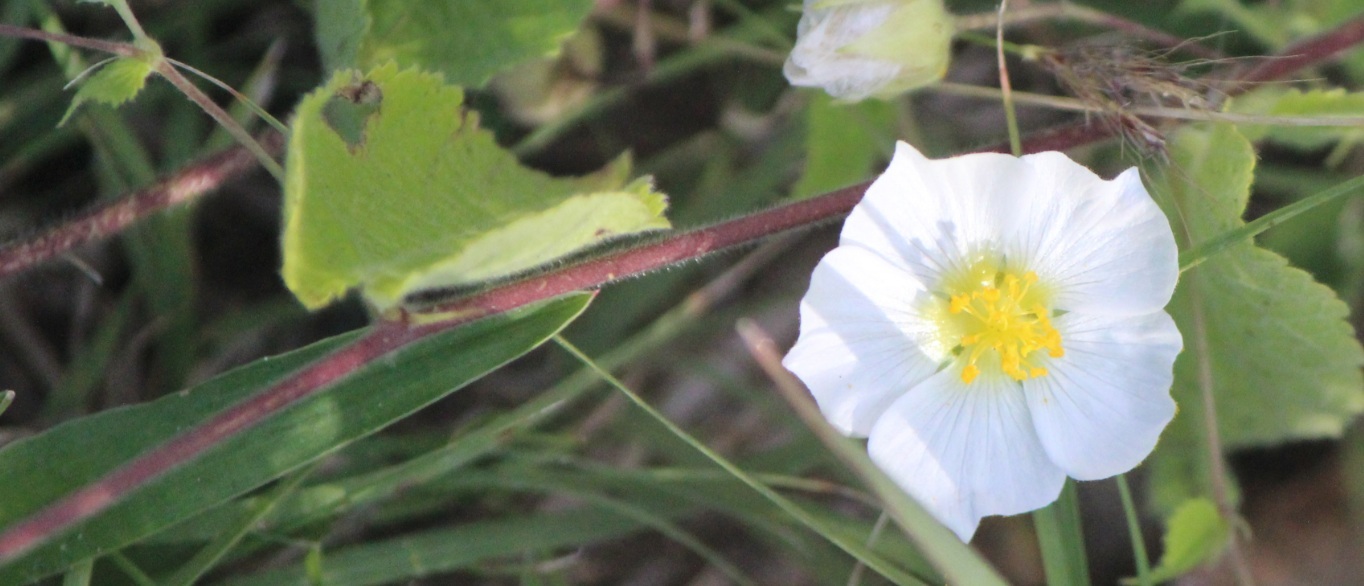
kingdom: Plantae
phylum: Tracheophyta
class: Magnoliopsida
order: Malvales
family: Malvaceae
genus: Herissantia
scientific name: Herissantia crispa
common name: Bladdermallow
